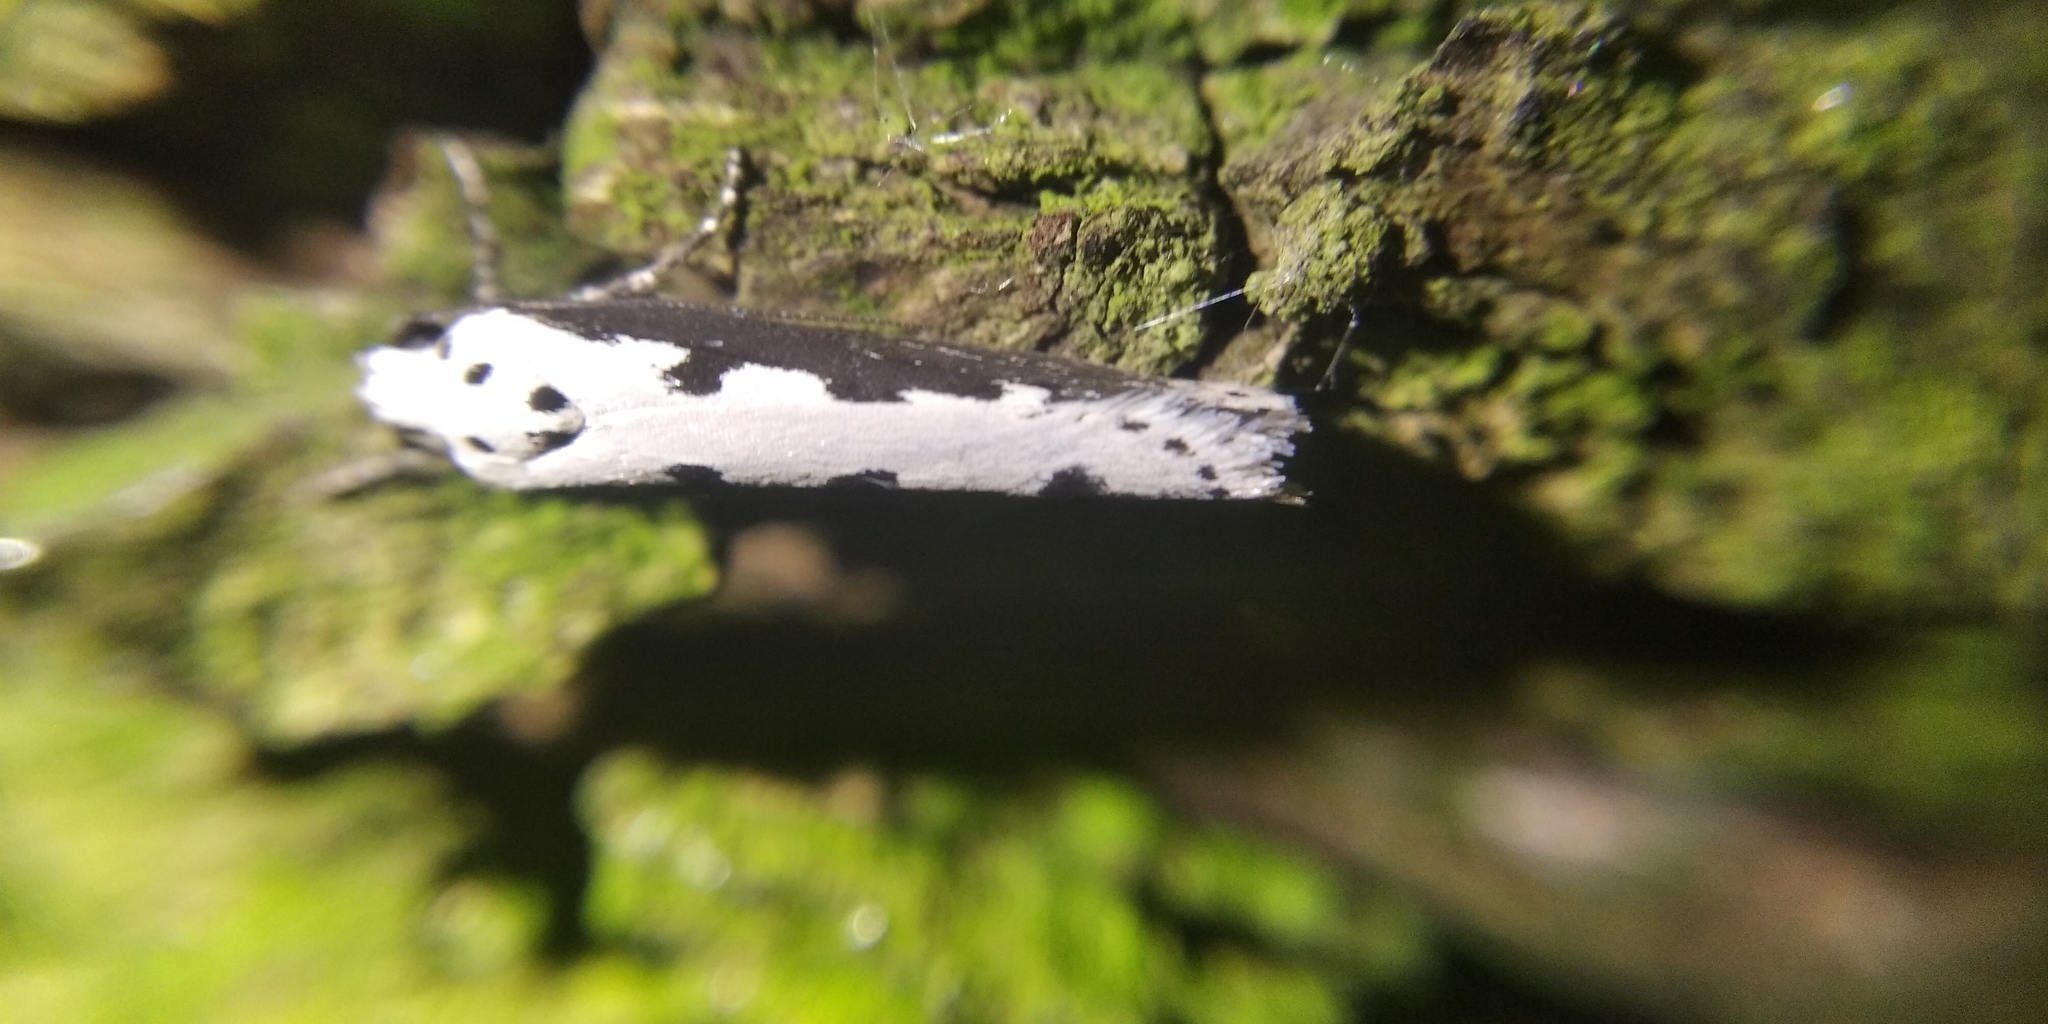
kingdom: Animalia
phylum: Arthropoda
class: Insecta
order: Lepidoptera
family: Ethmiidae
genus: Ethmia
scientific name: Ethmia bipunctella
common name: Bordered ermel
